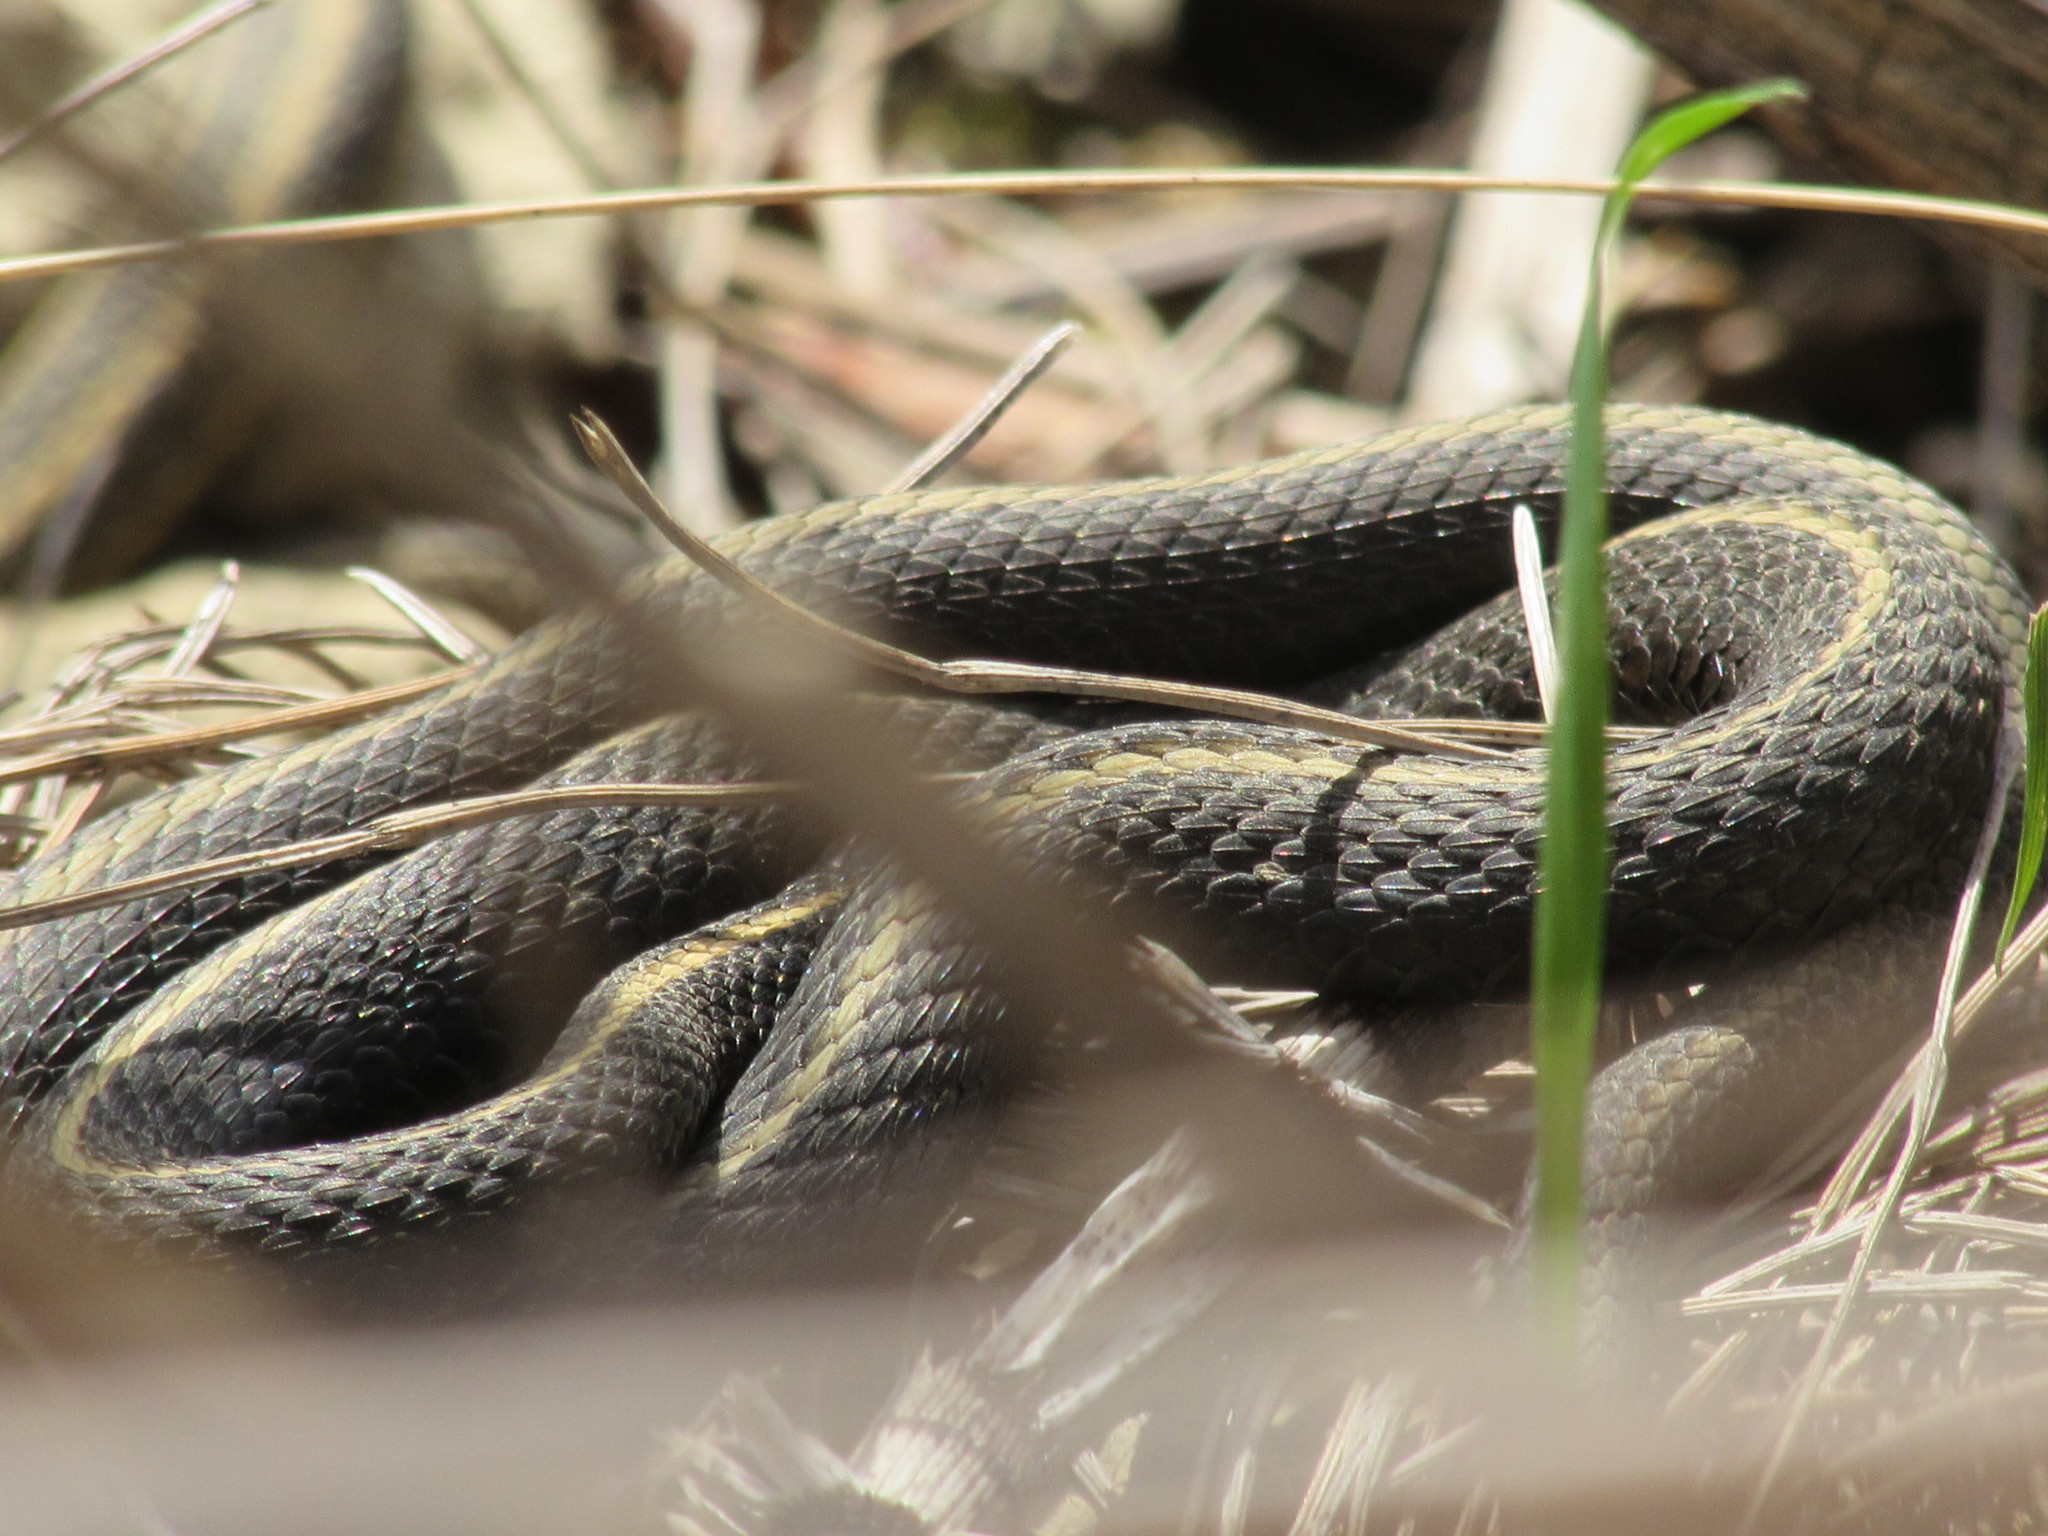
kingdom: Animalia
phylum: Chordata
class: Squamata
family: Colubridae
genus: Thamnophis
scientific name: Thamnophis ordinoides
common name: Northwestern garter snake
